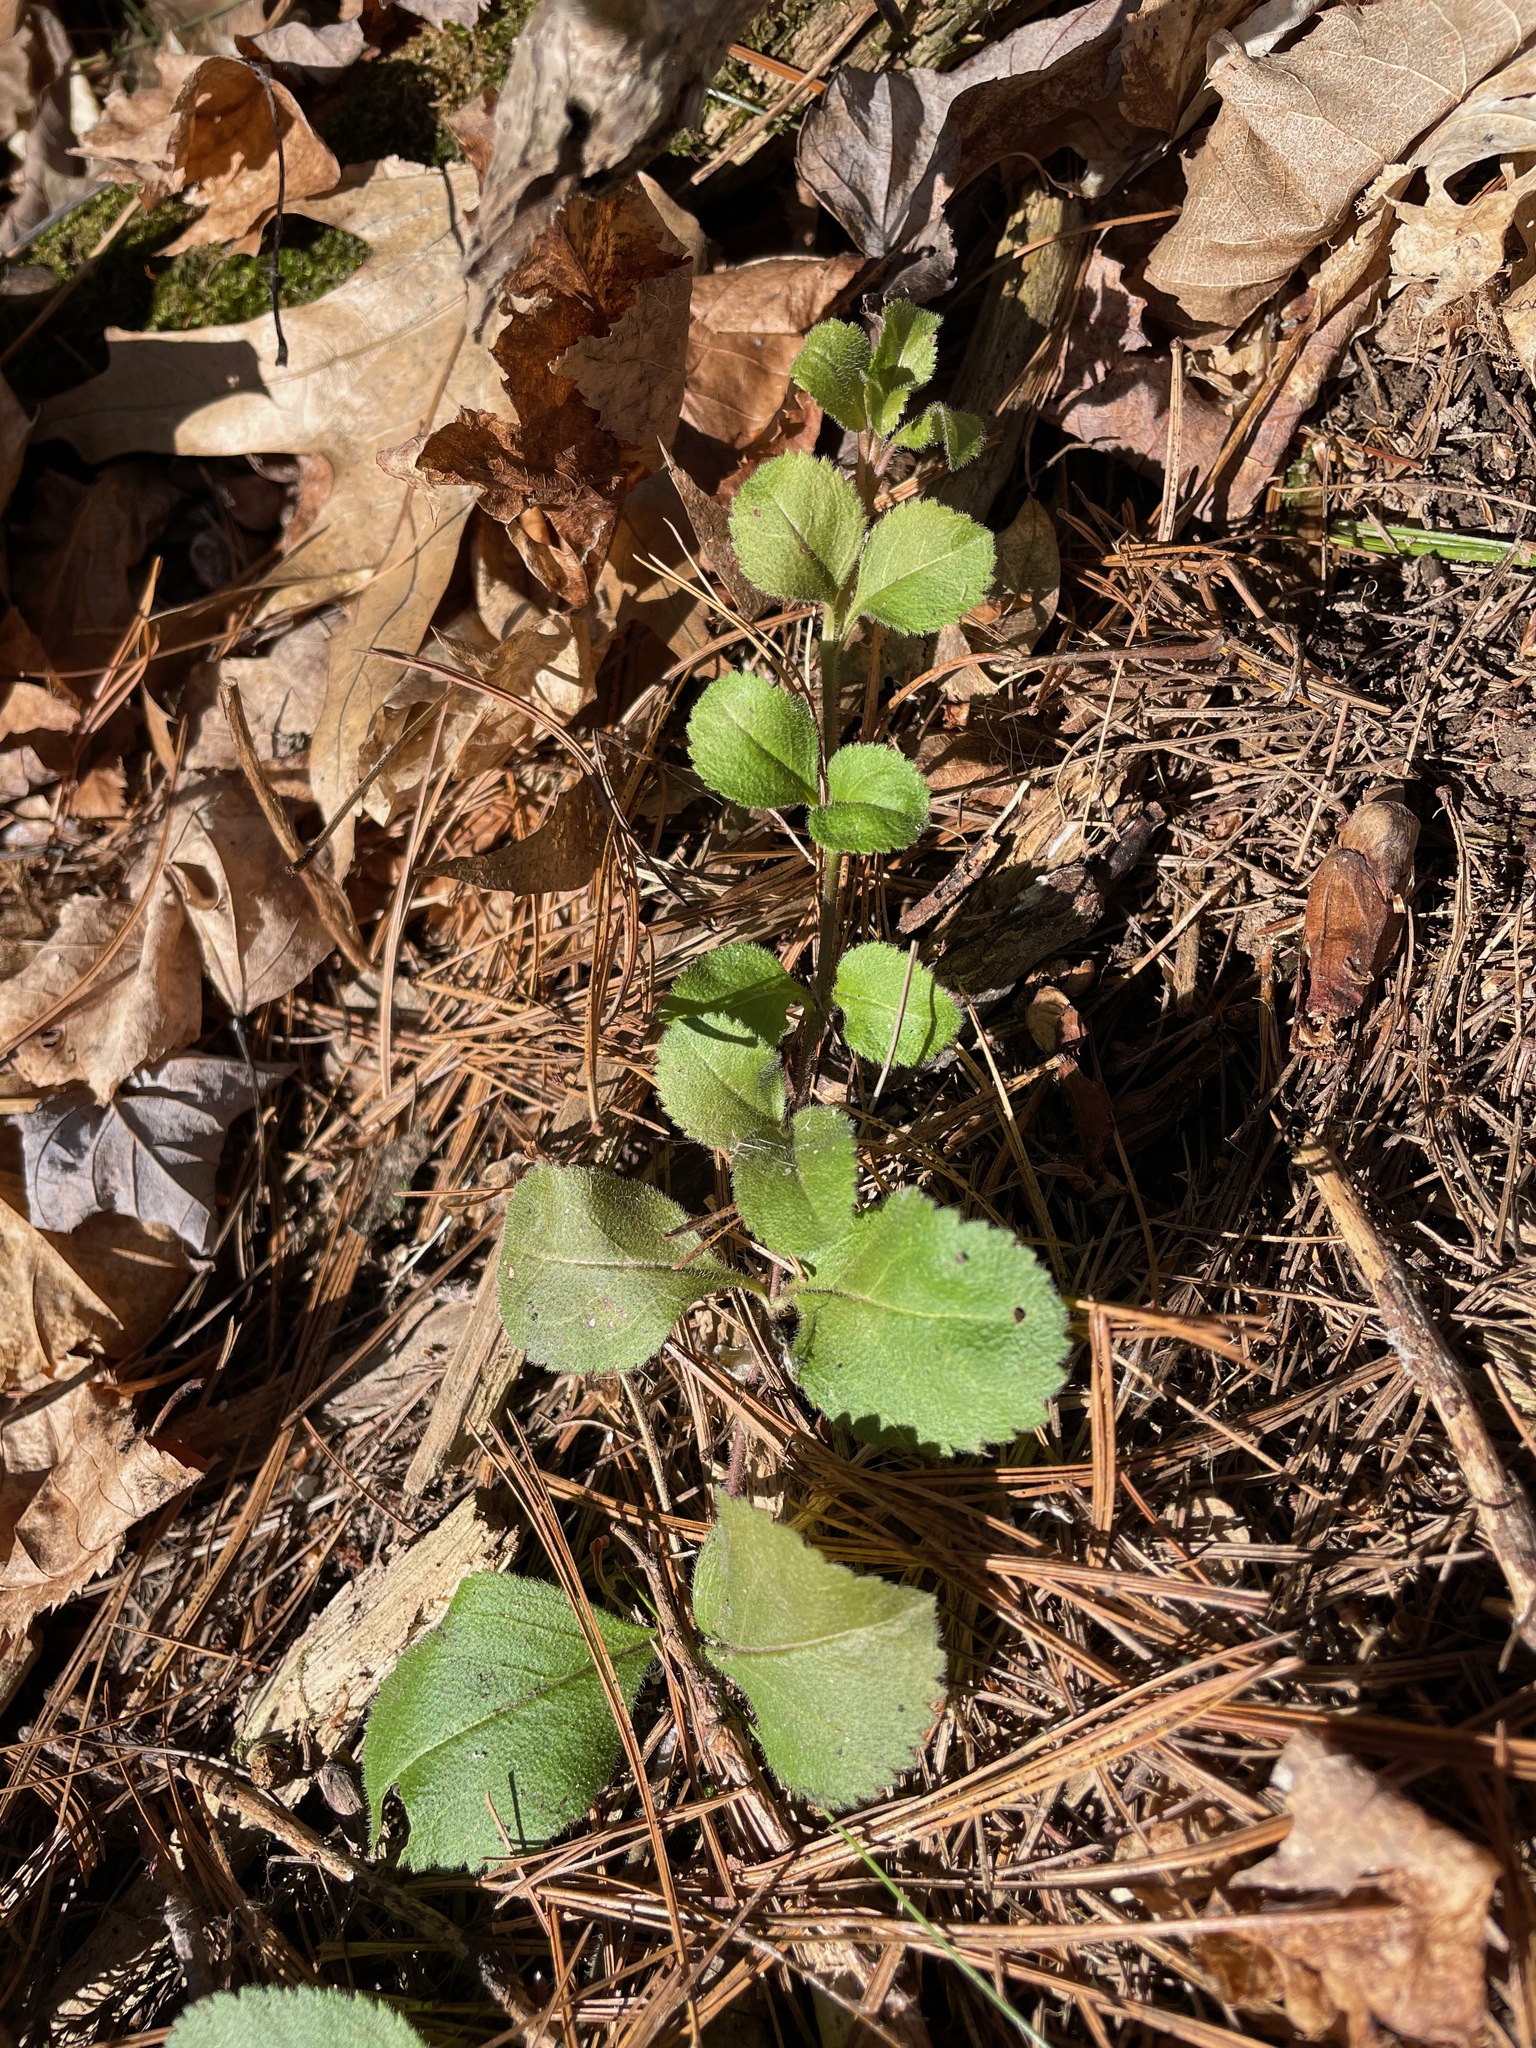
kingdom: Plantae
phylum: Tracheophyta
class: Magnoliopsida
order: Lamiales
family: Plantaginaceae
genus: Veronica
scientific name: Veronica officinalis
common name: Common speedwell
